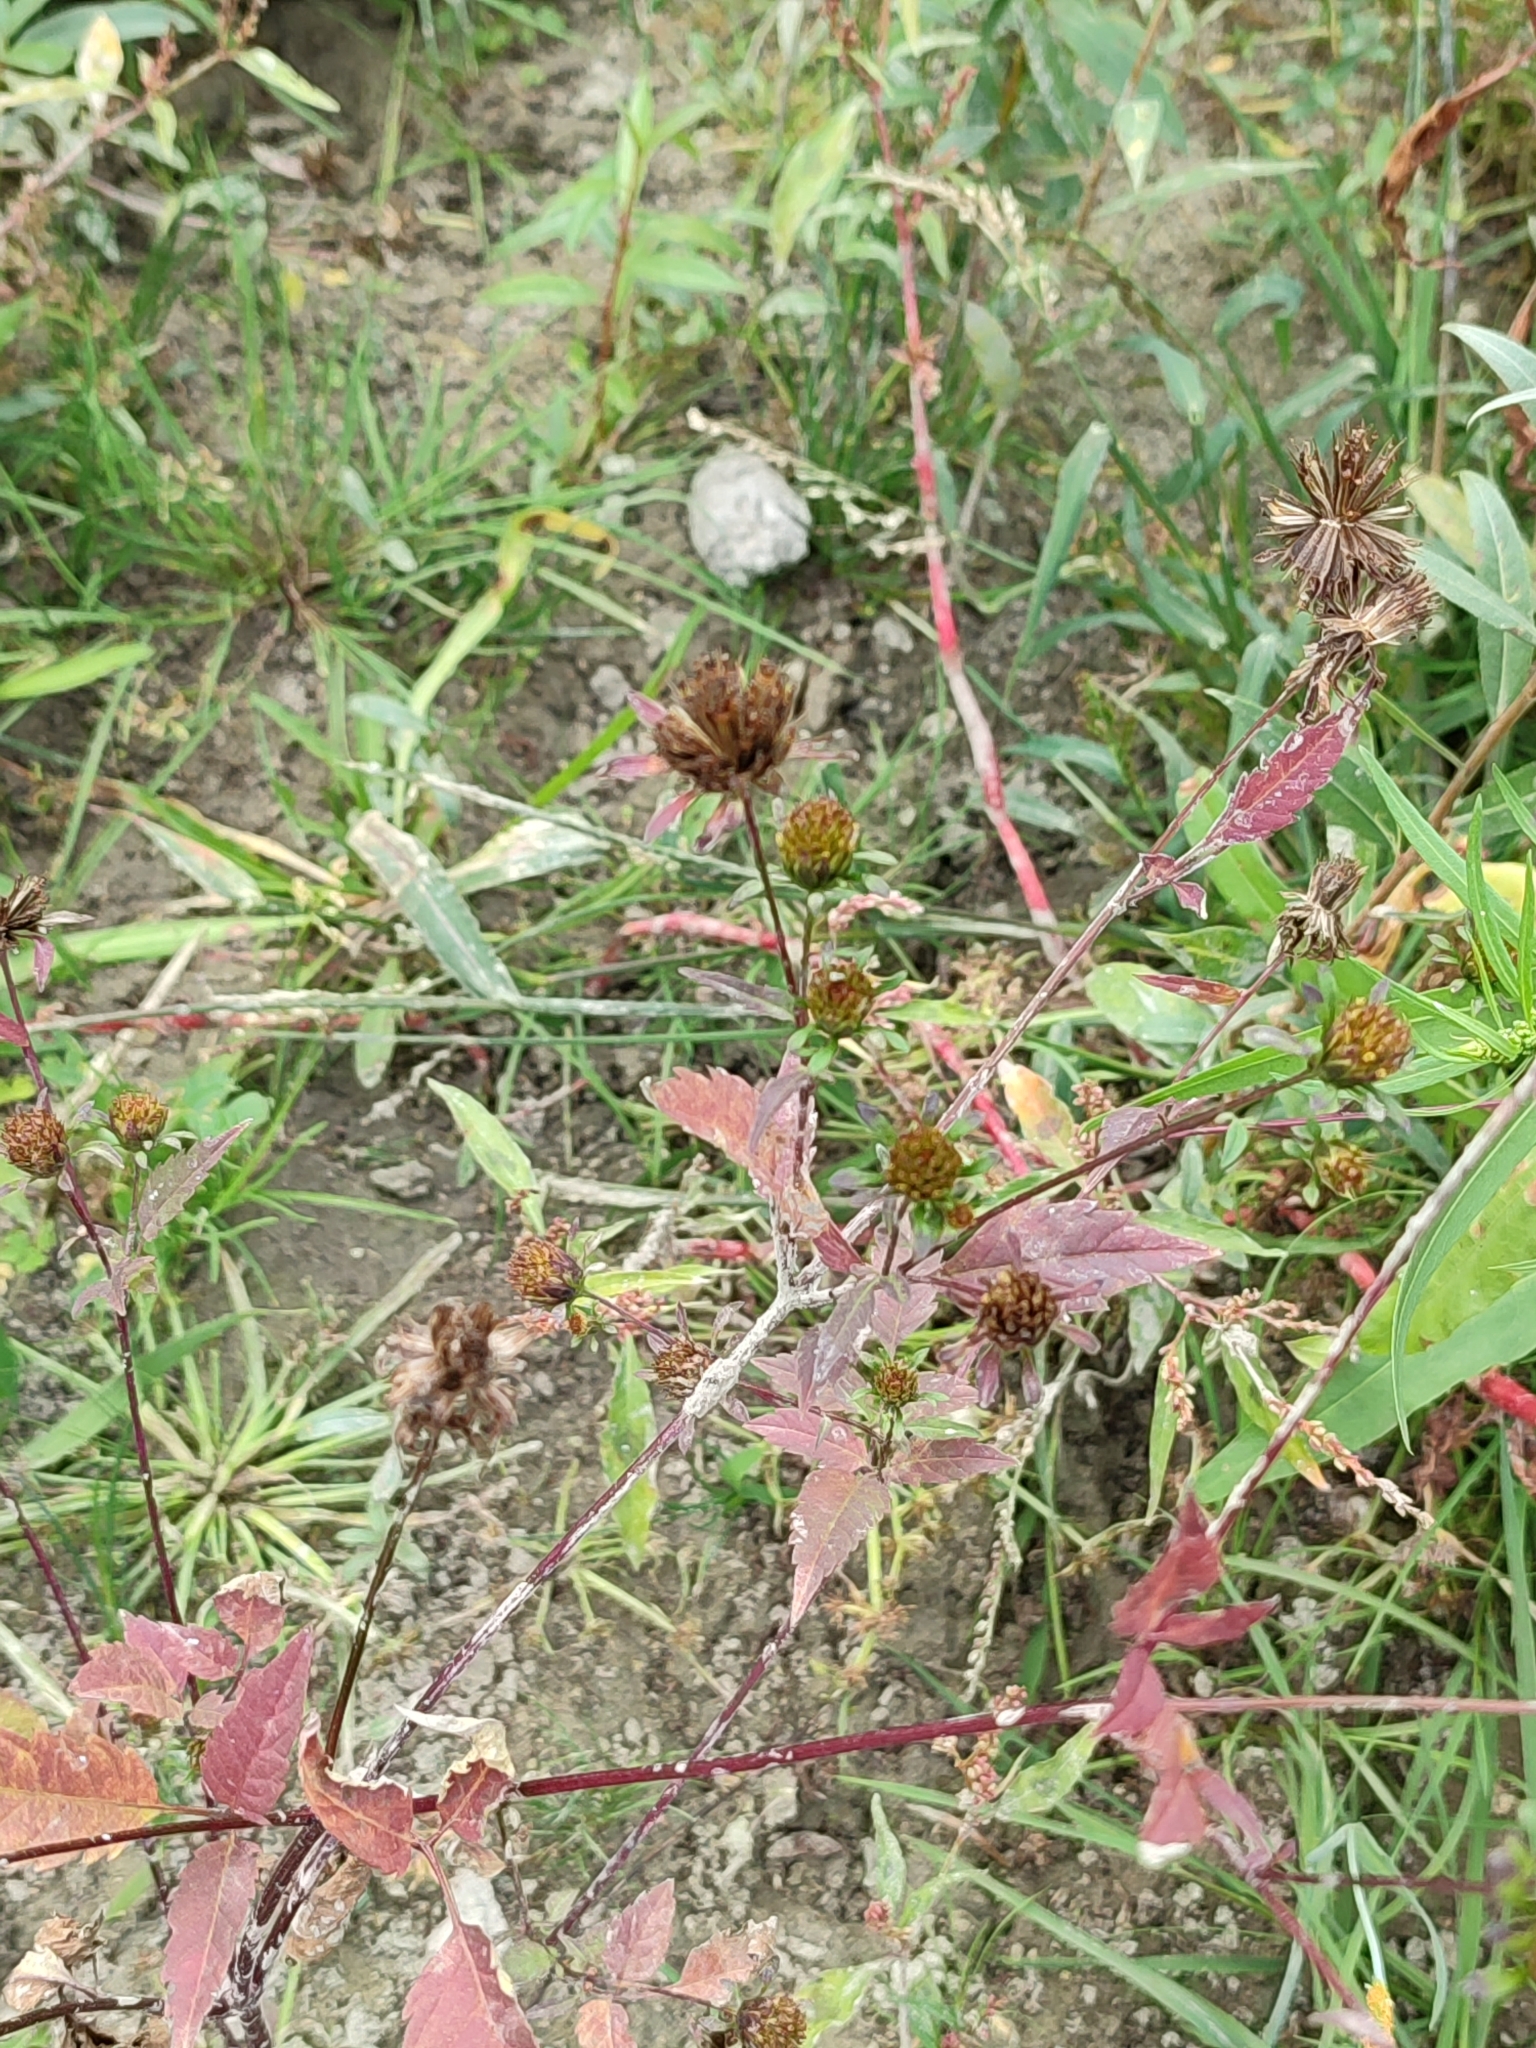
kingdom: Plantae
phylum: Tracheophyta
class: Magnoliopsida
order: Asterales
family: Asteraceae
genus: Bidens
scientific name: Bidens frondosa
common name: Beggarticks
